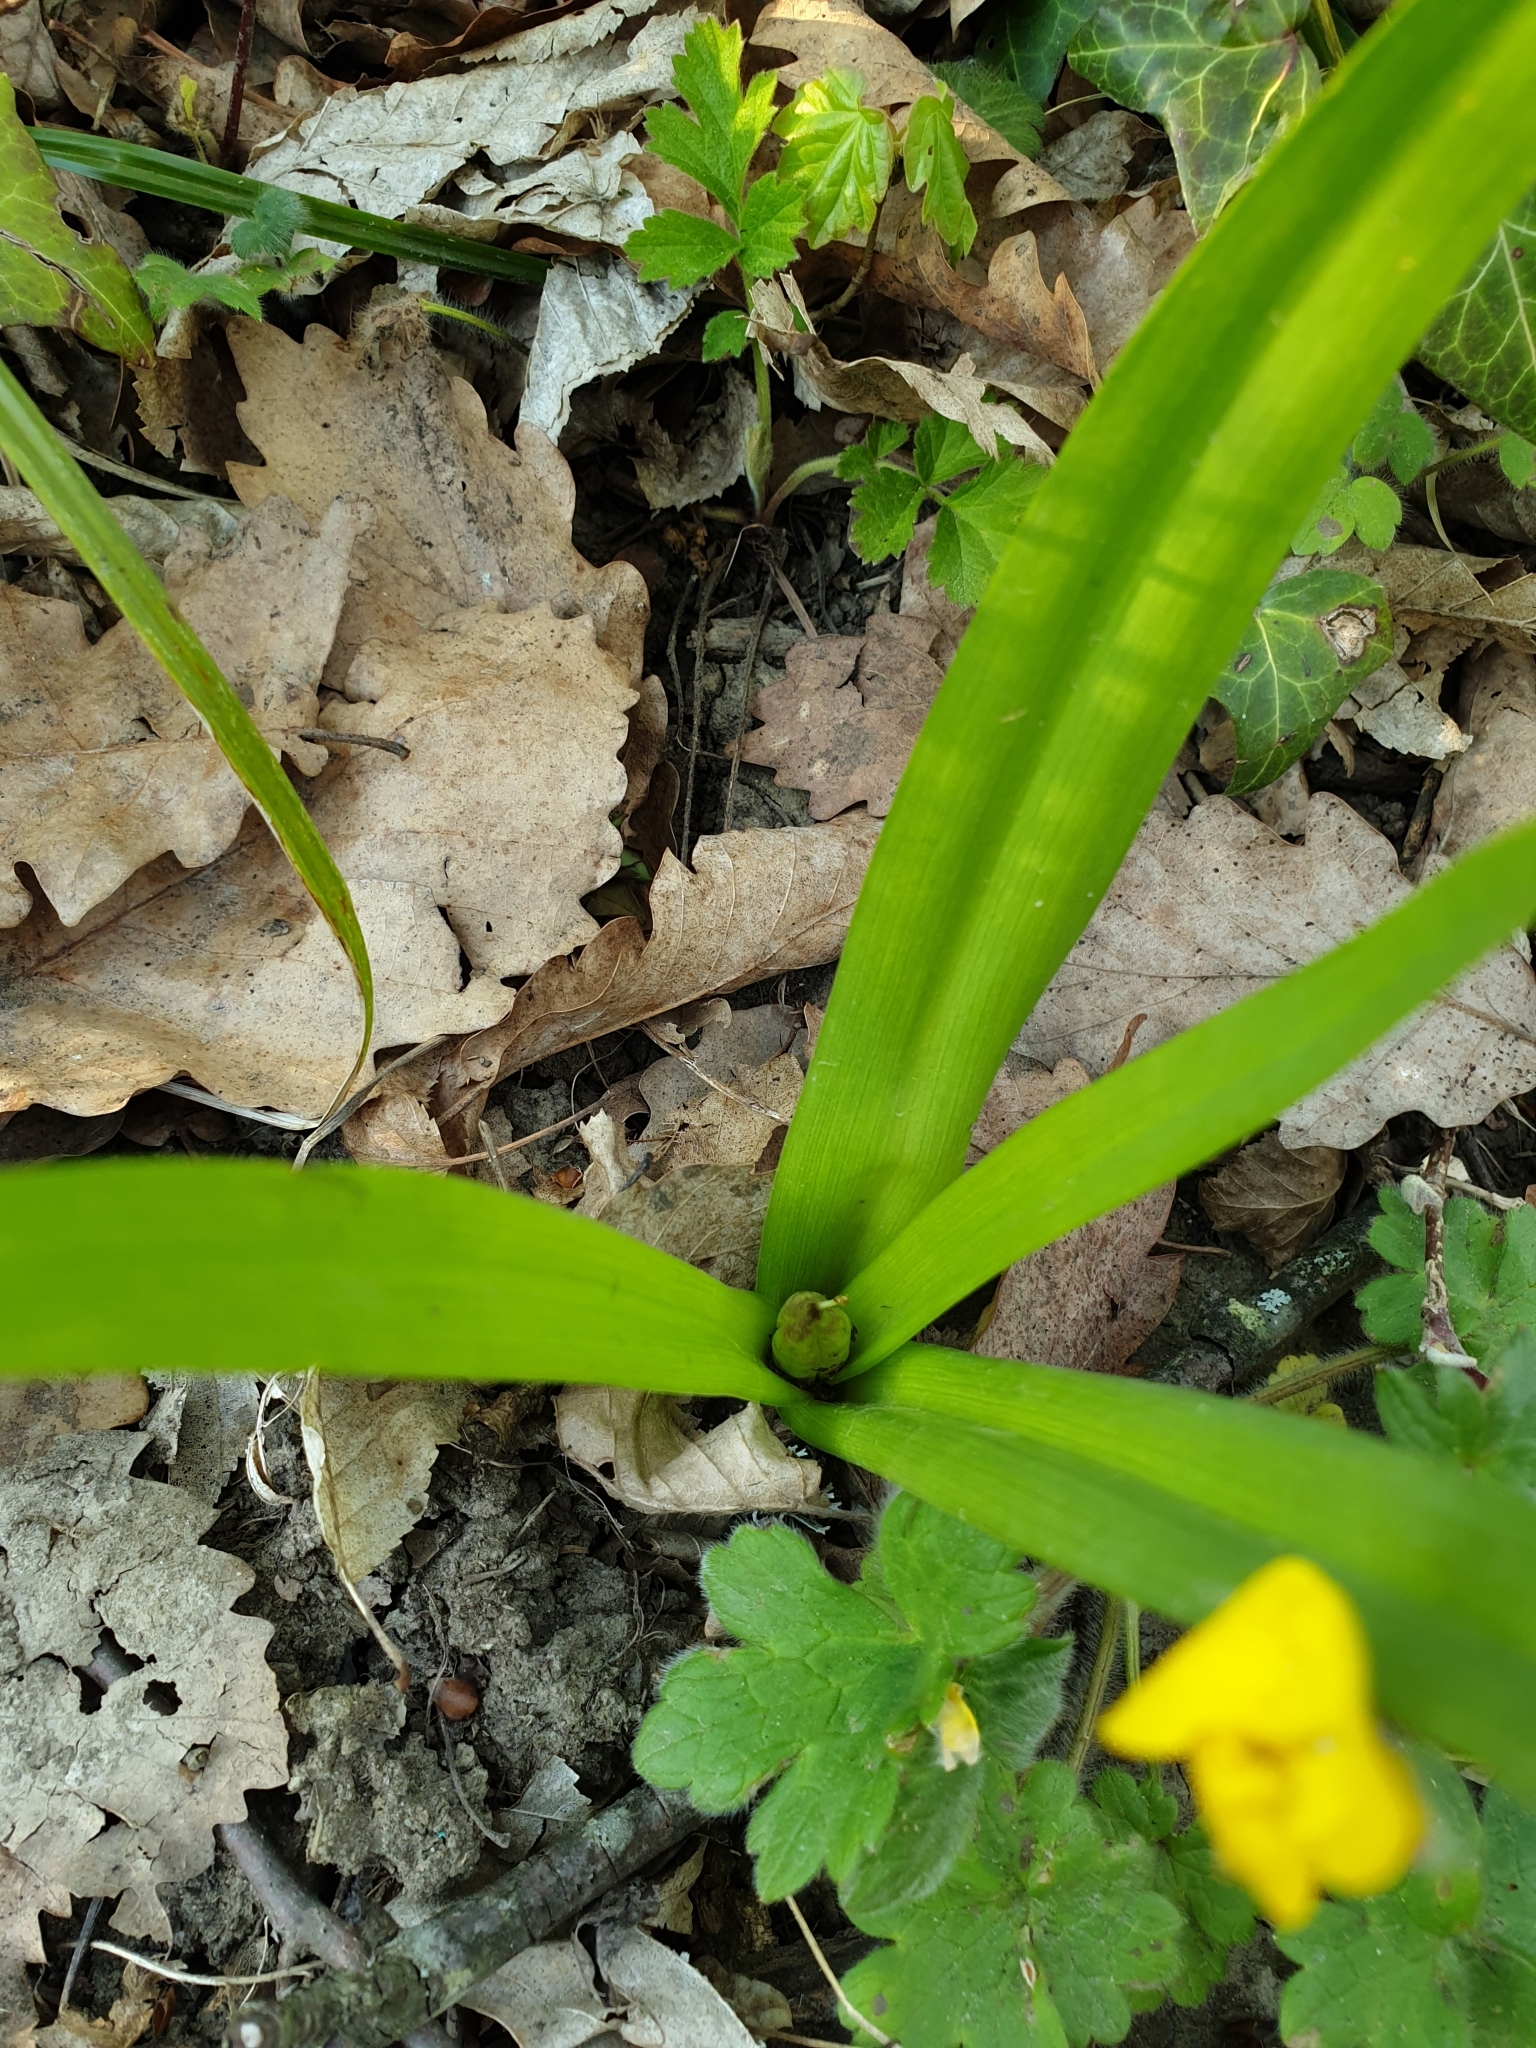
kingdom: Plantae
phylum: Tracheophyta
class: Liliopsida
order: Liliales
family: Colchicaceae
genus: Colchicum
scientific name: Colchicum umbrosum
